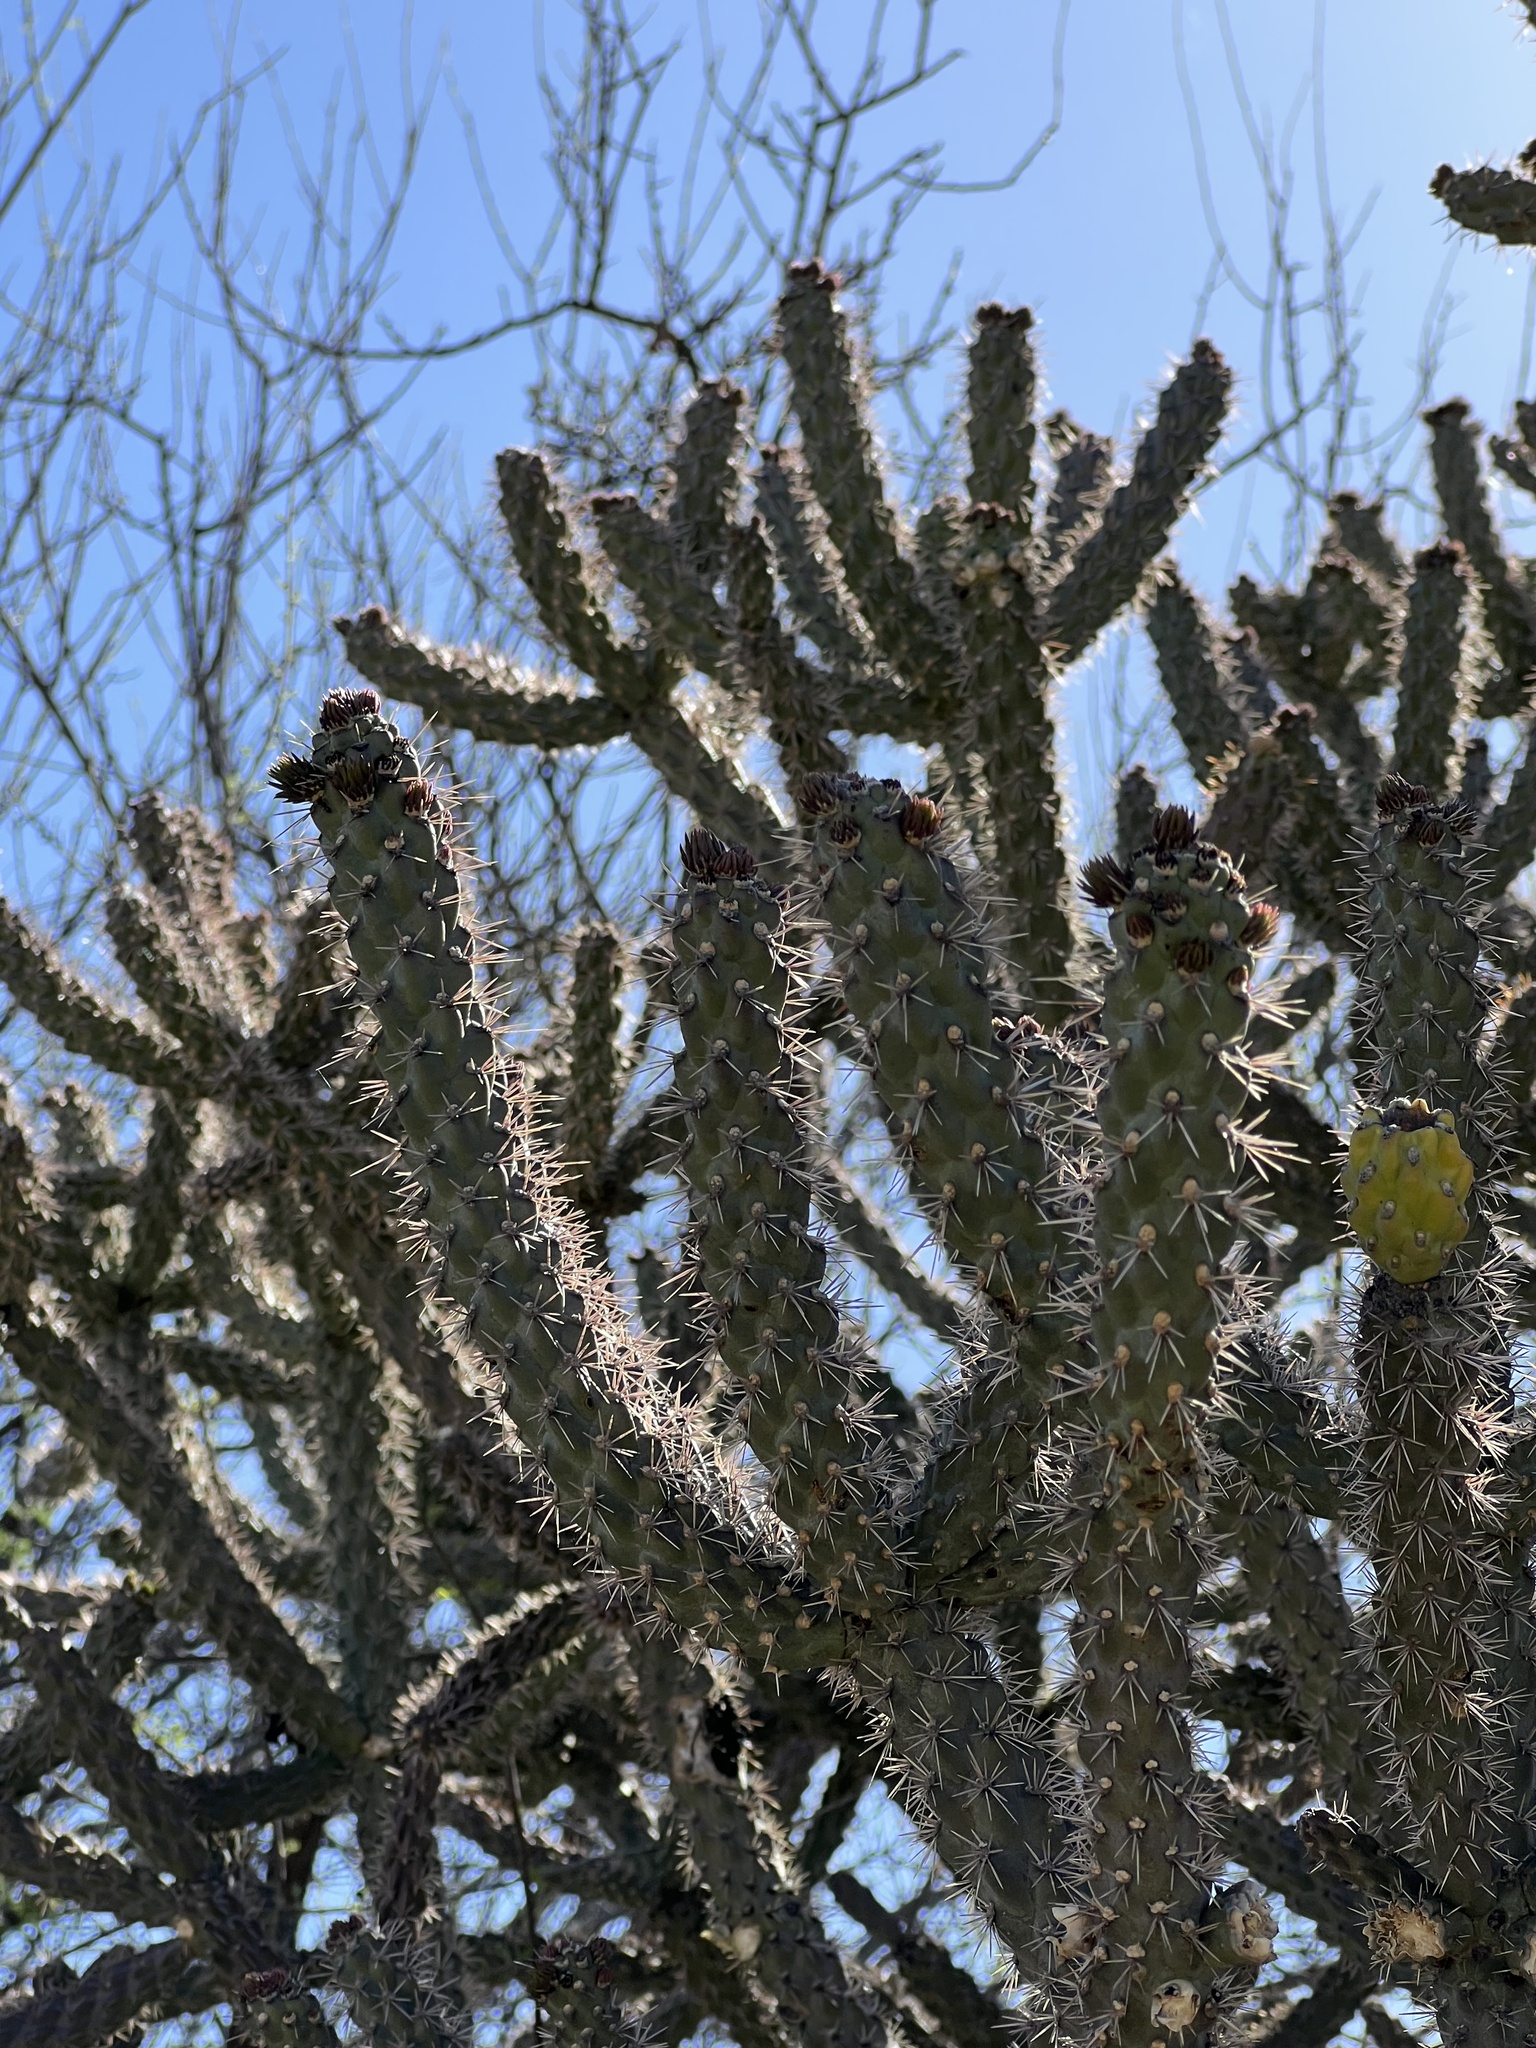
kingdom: Plantae
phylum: Tracheophyta
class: Magnoliopsida
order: Caryophyllales
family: Cactaceae
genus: Cylindropuntia
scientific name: Cylindropuntia imbricata
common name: Candelabrum cactus
